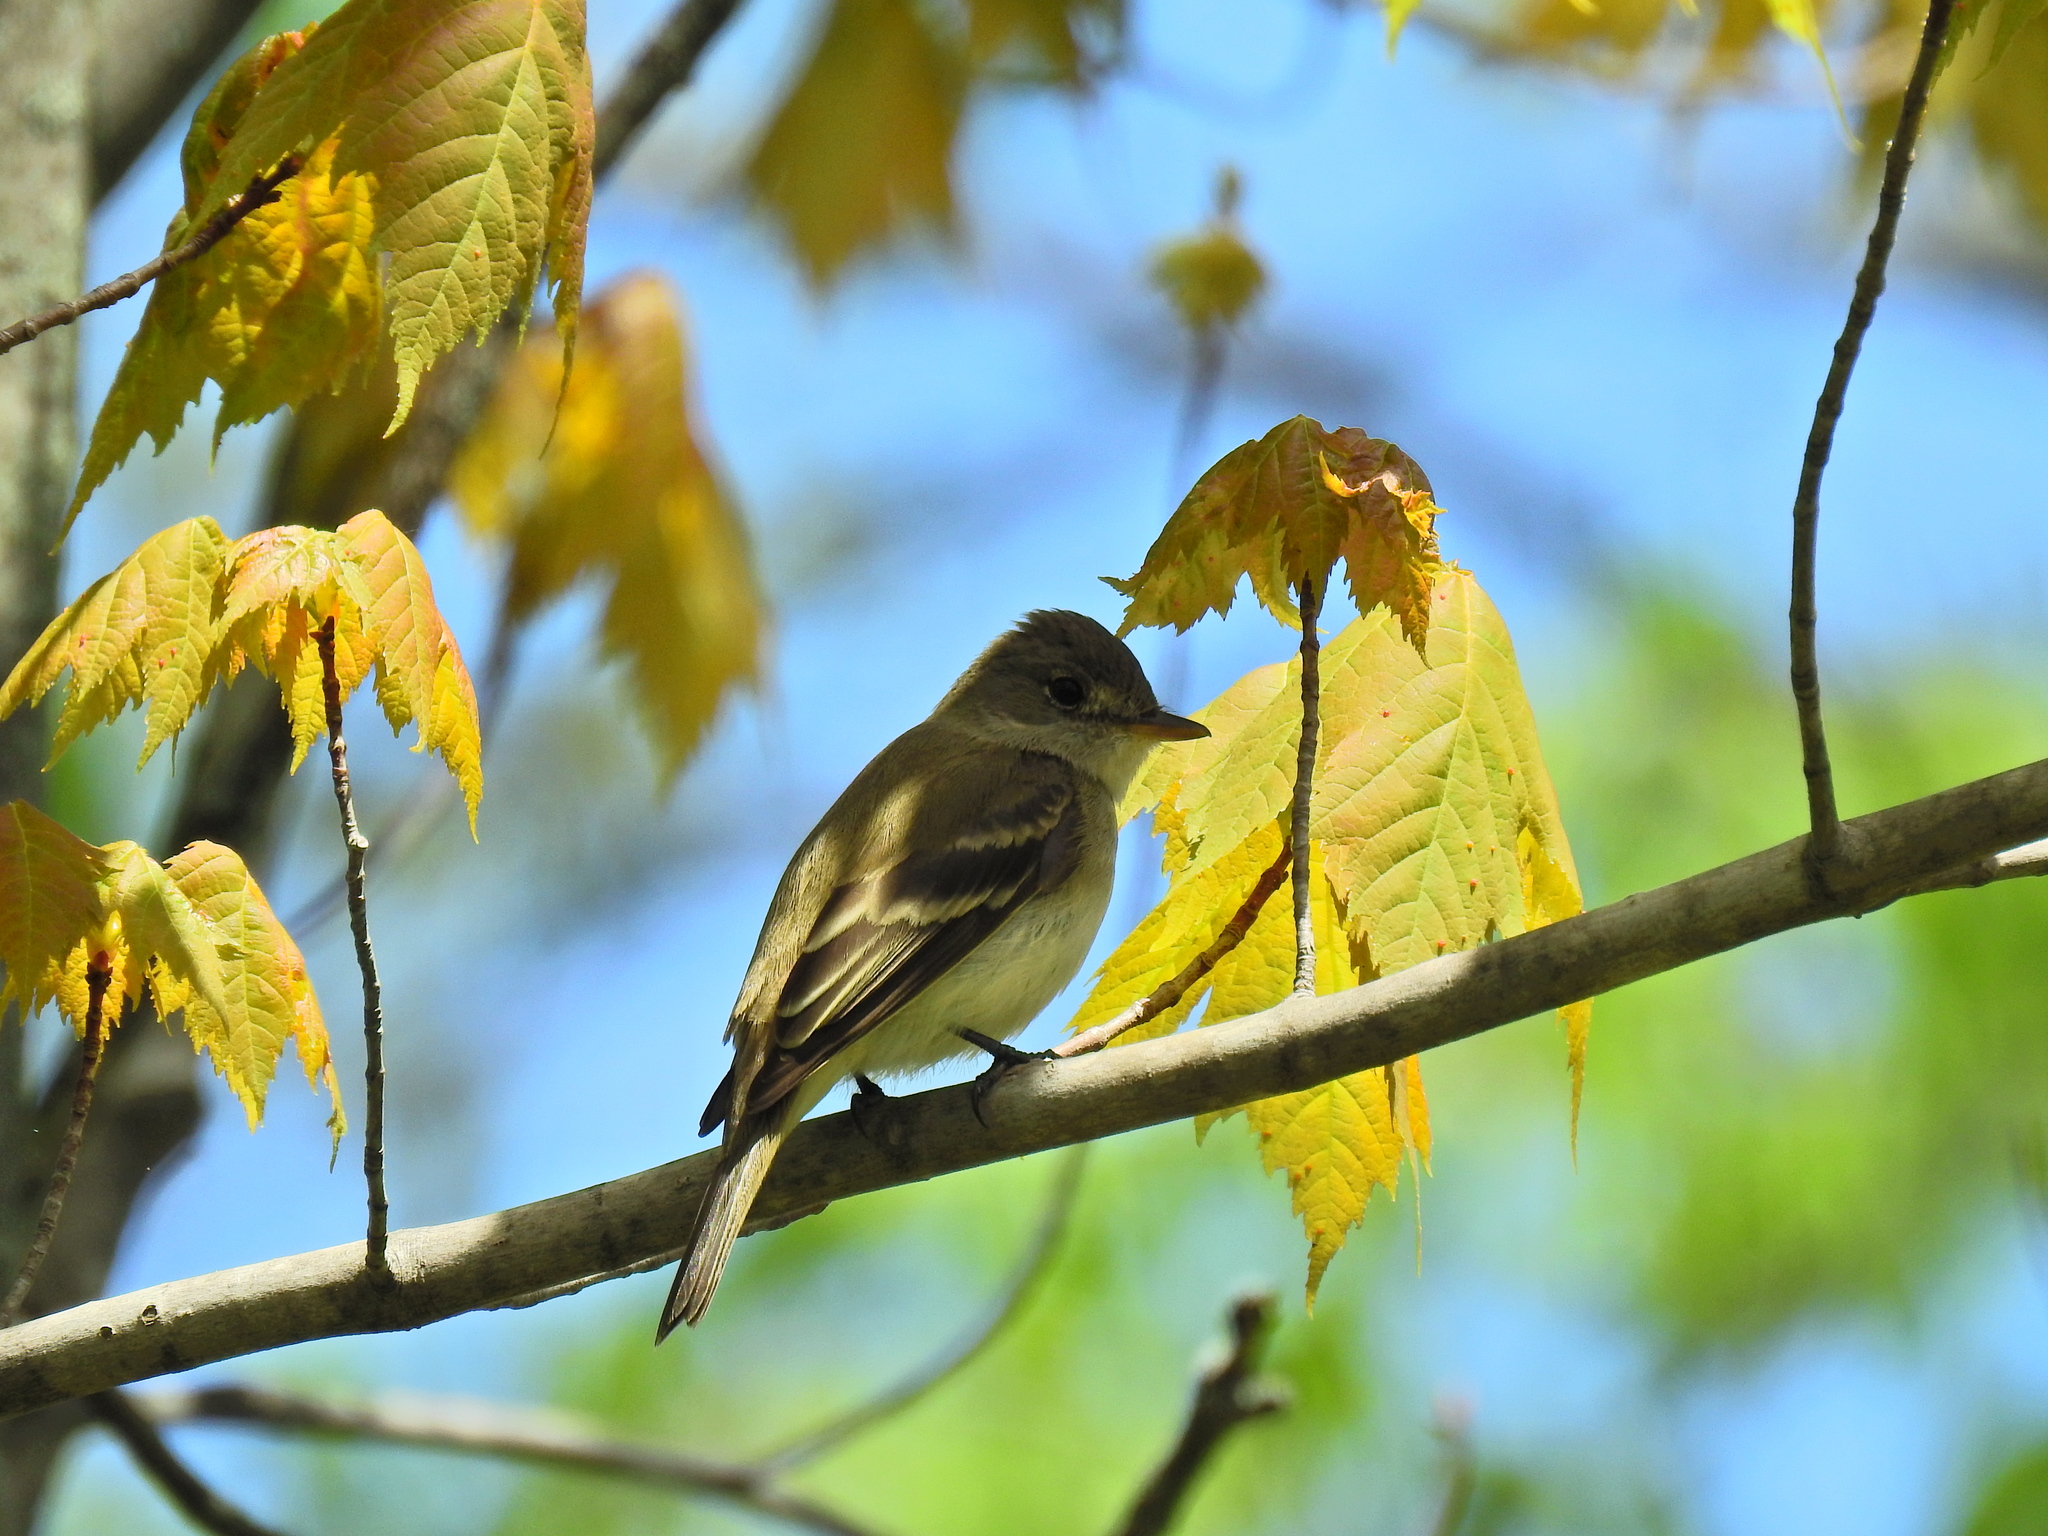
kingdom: Animalia
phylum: Chordata
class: Aves
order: Passeriformes
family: Tyrannidae
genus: Empidonax
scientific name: Empidonax
